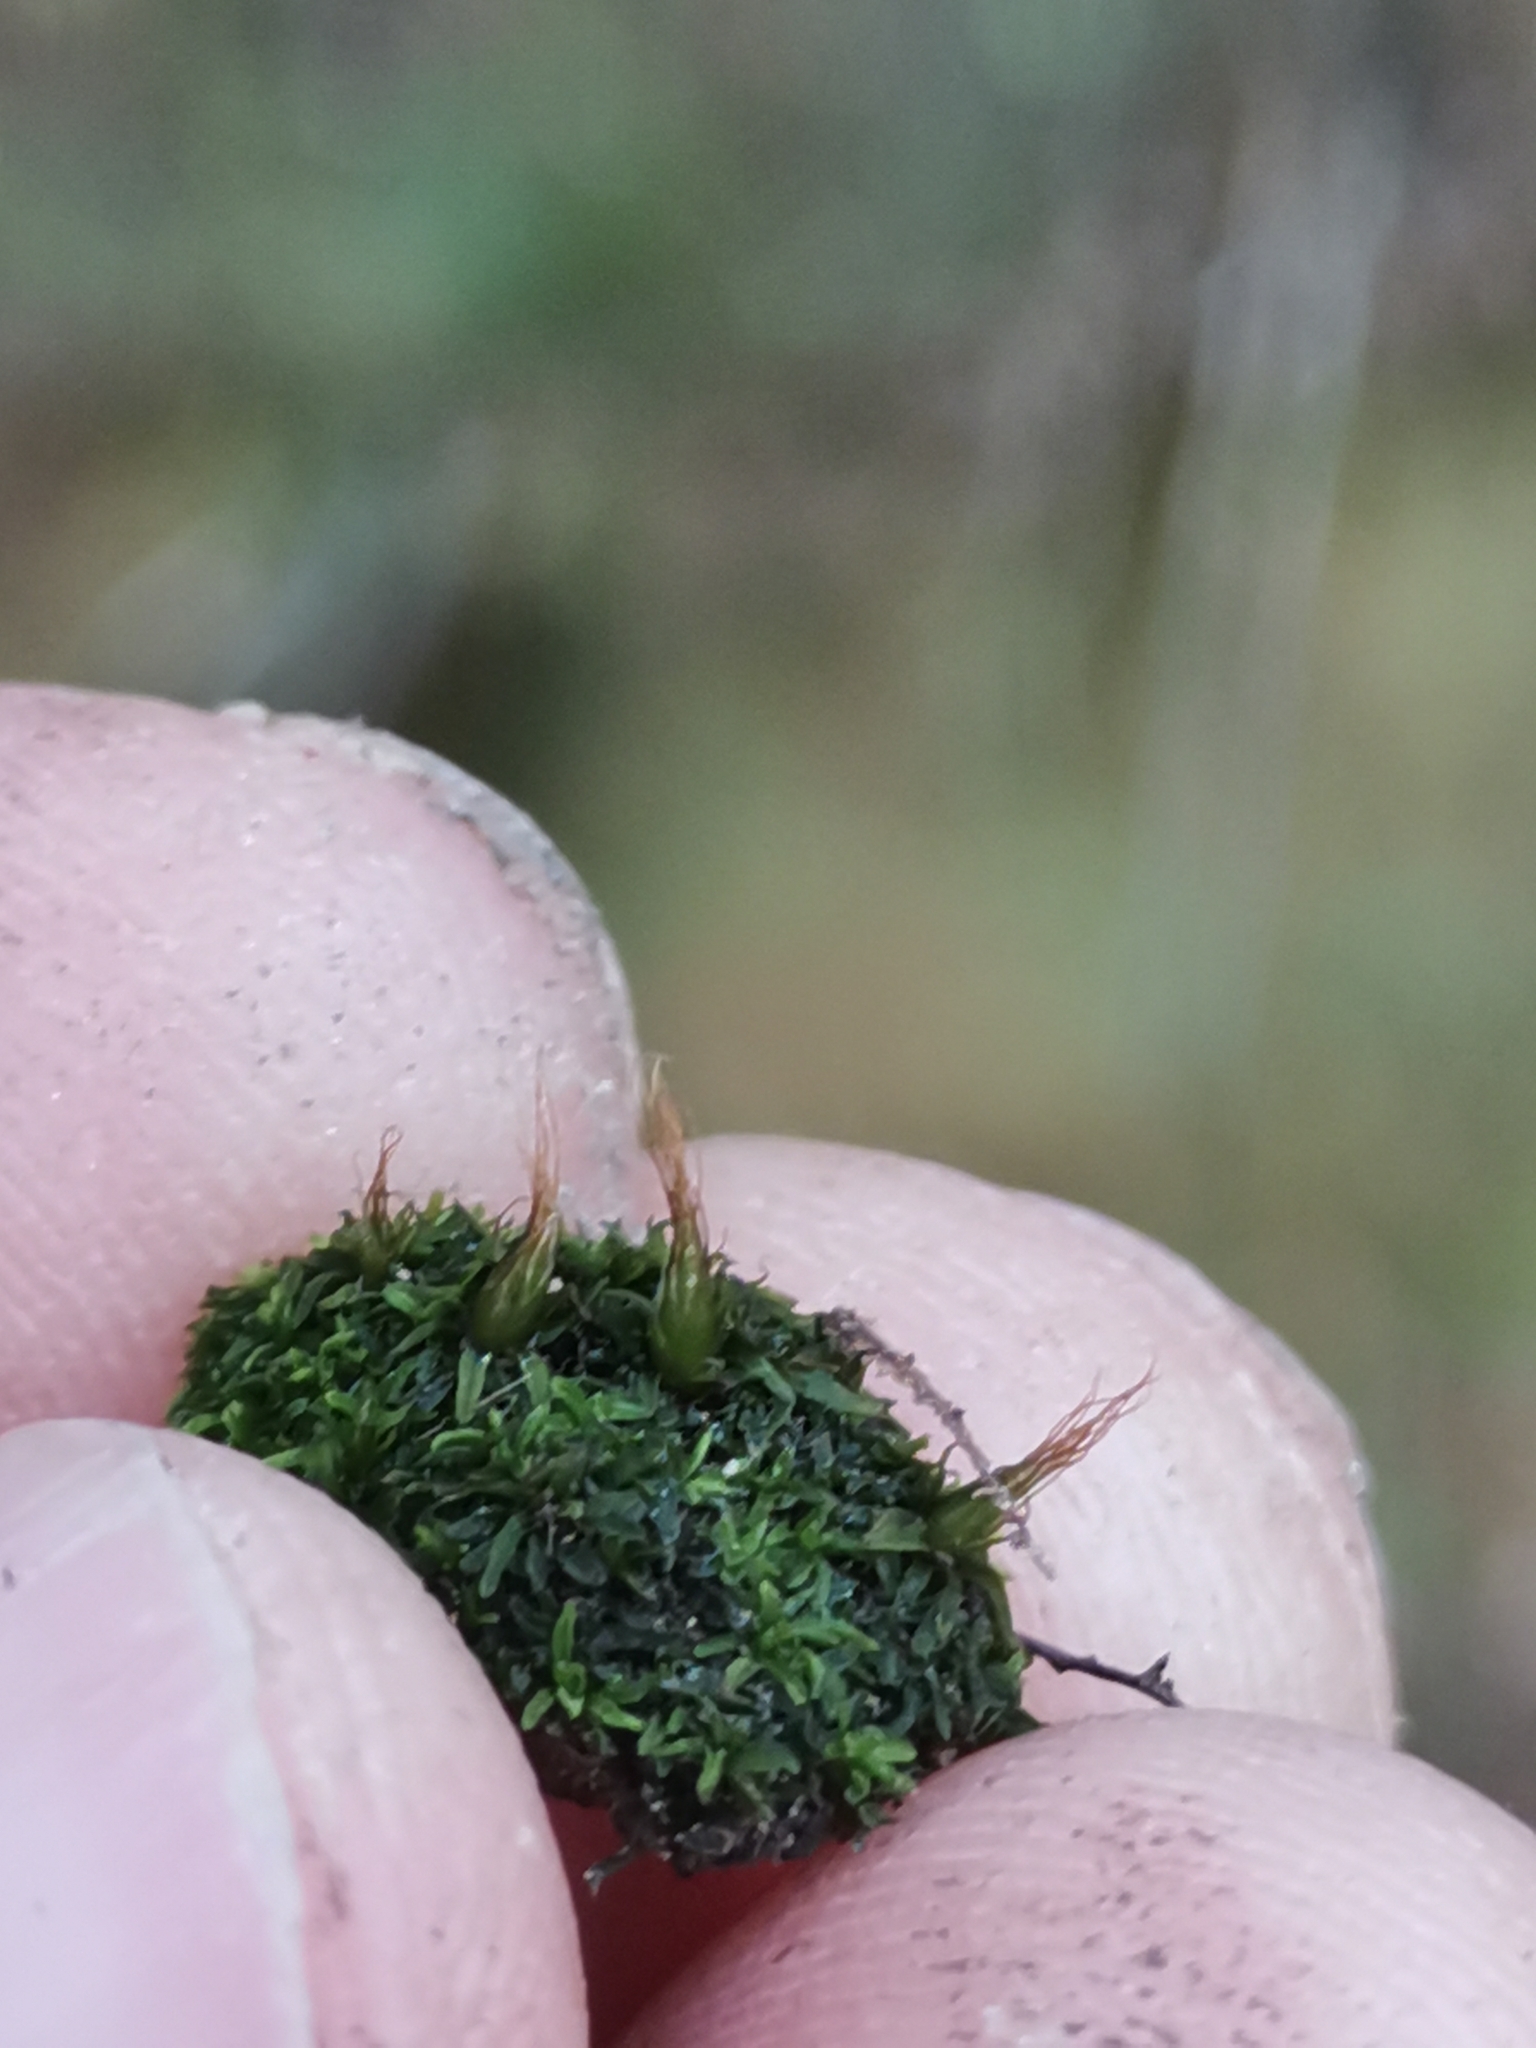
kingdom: Plantae
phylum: Bryophyta
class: Bryopsida
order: Diphysciales
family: Diphysciaceae
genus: Diphyscium
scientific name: Diphyscium foliosum
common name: Nut moss
